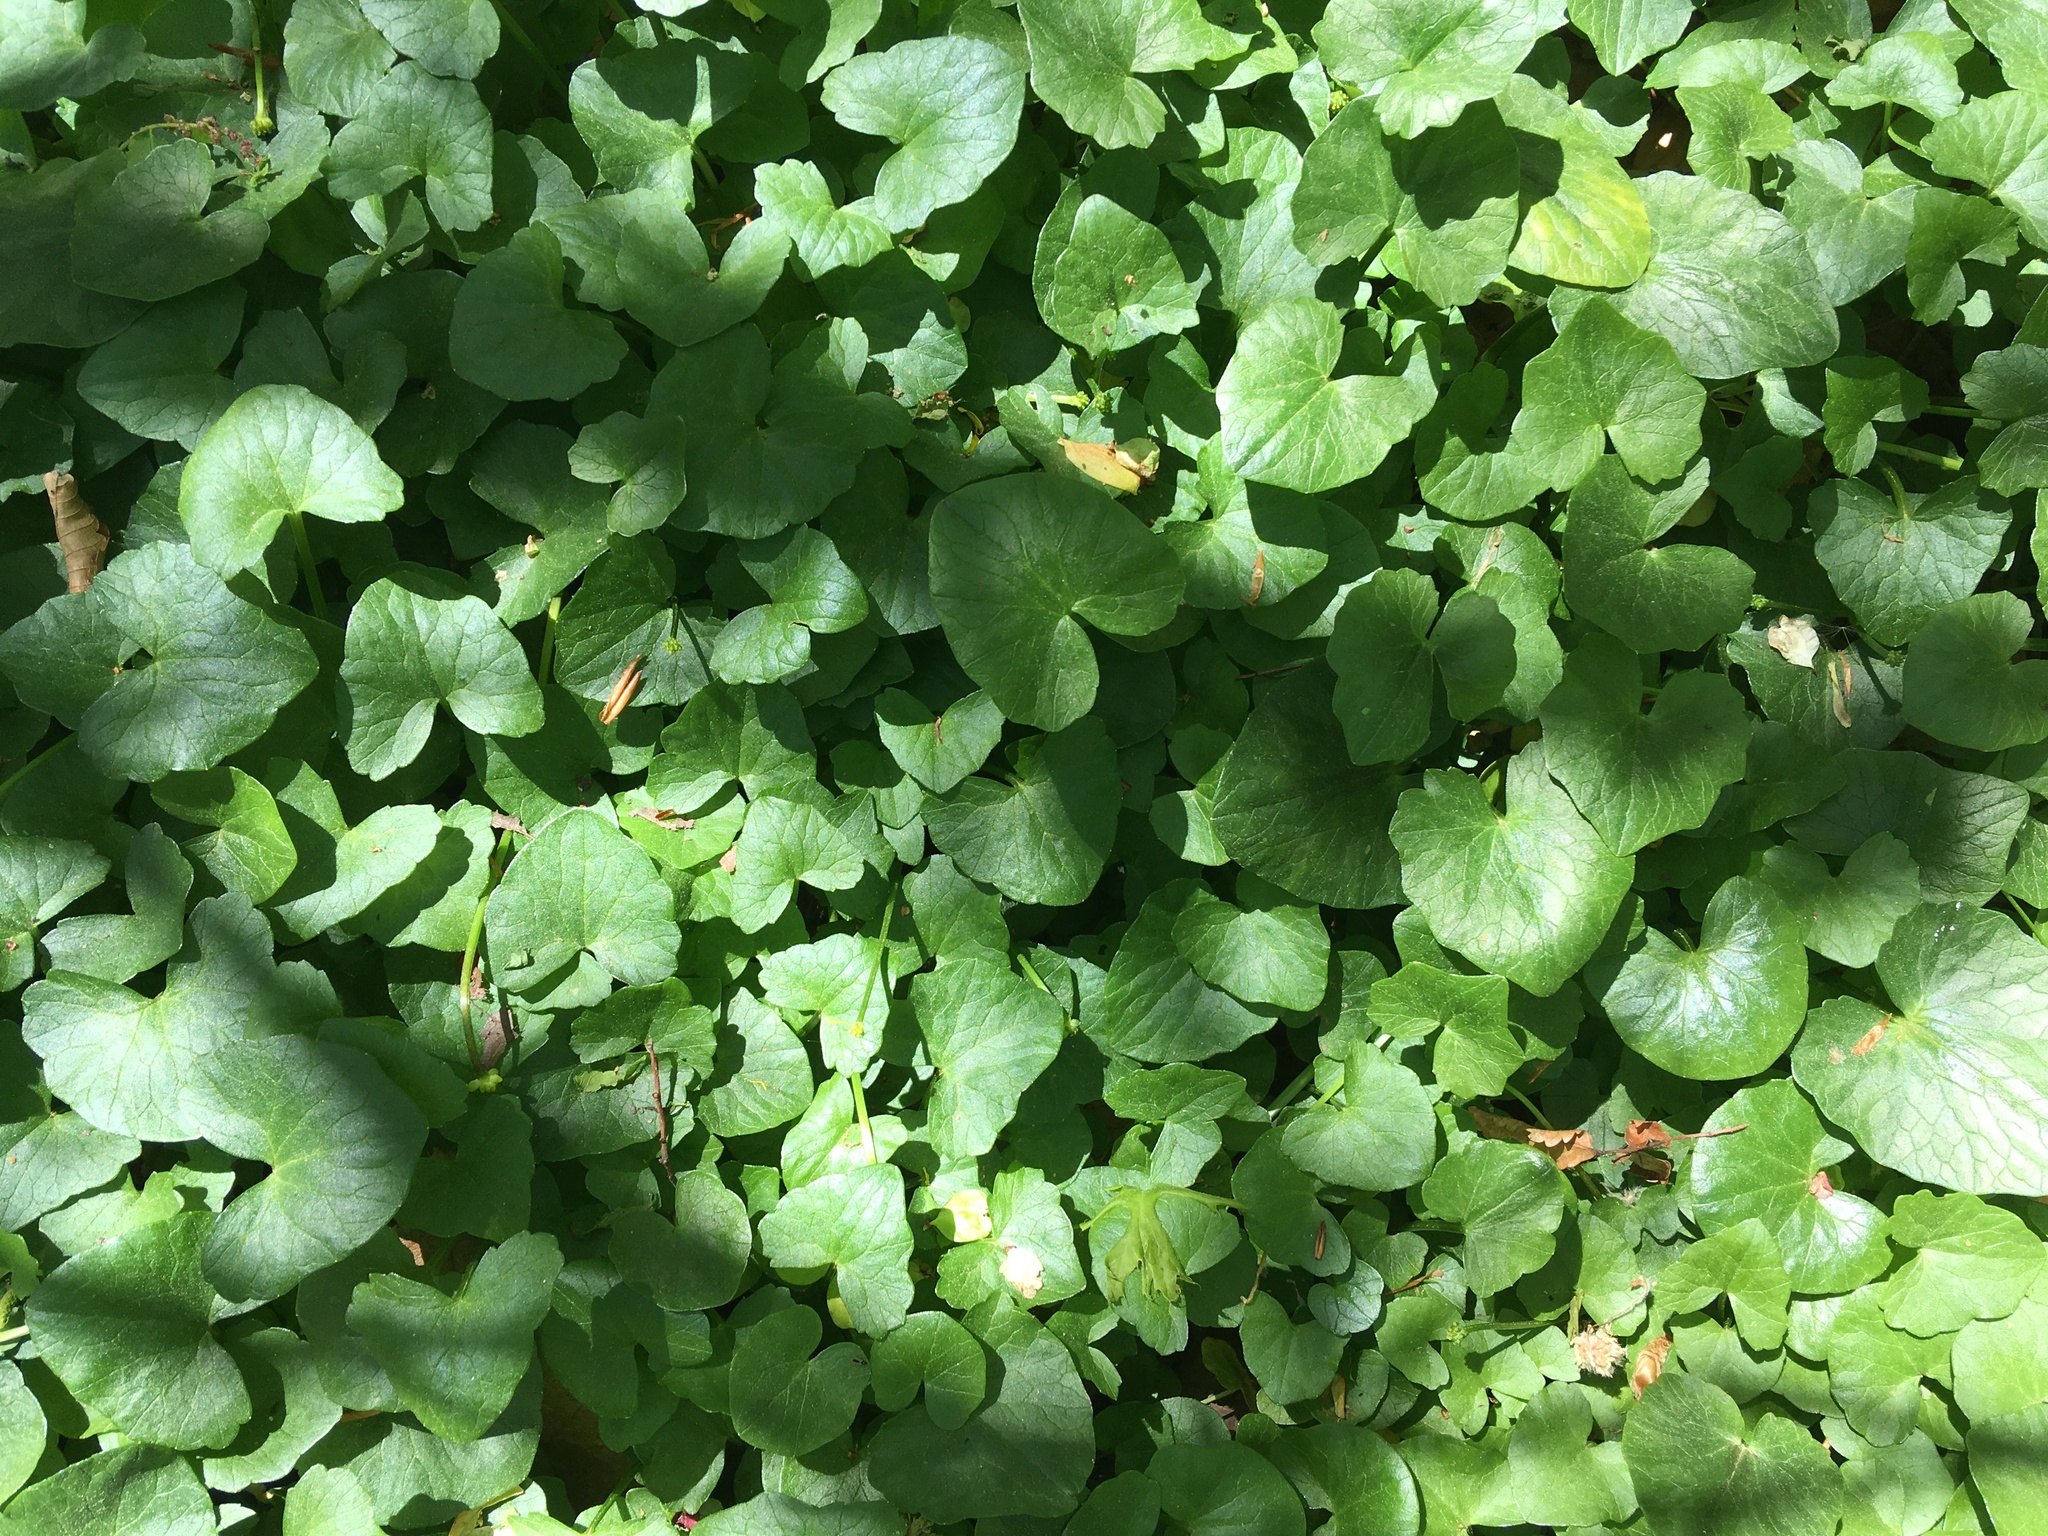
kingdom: Plantae
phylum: Tracheophyta
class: Magnoliopsida
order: Ranunculales
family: Ranunculaceae
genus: Ficaria
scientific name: Ficaria verna
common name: Lesser celandine
